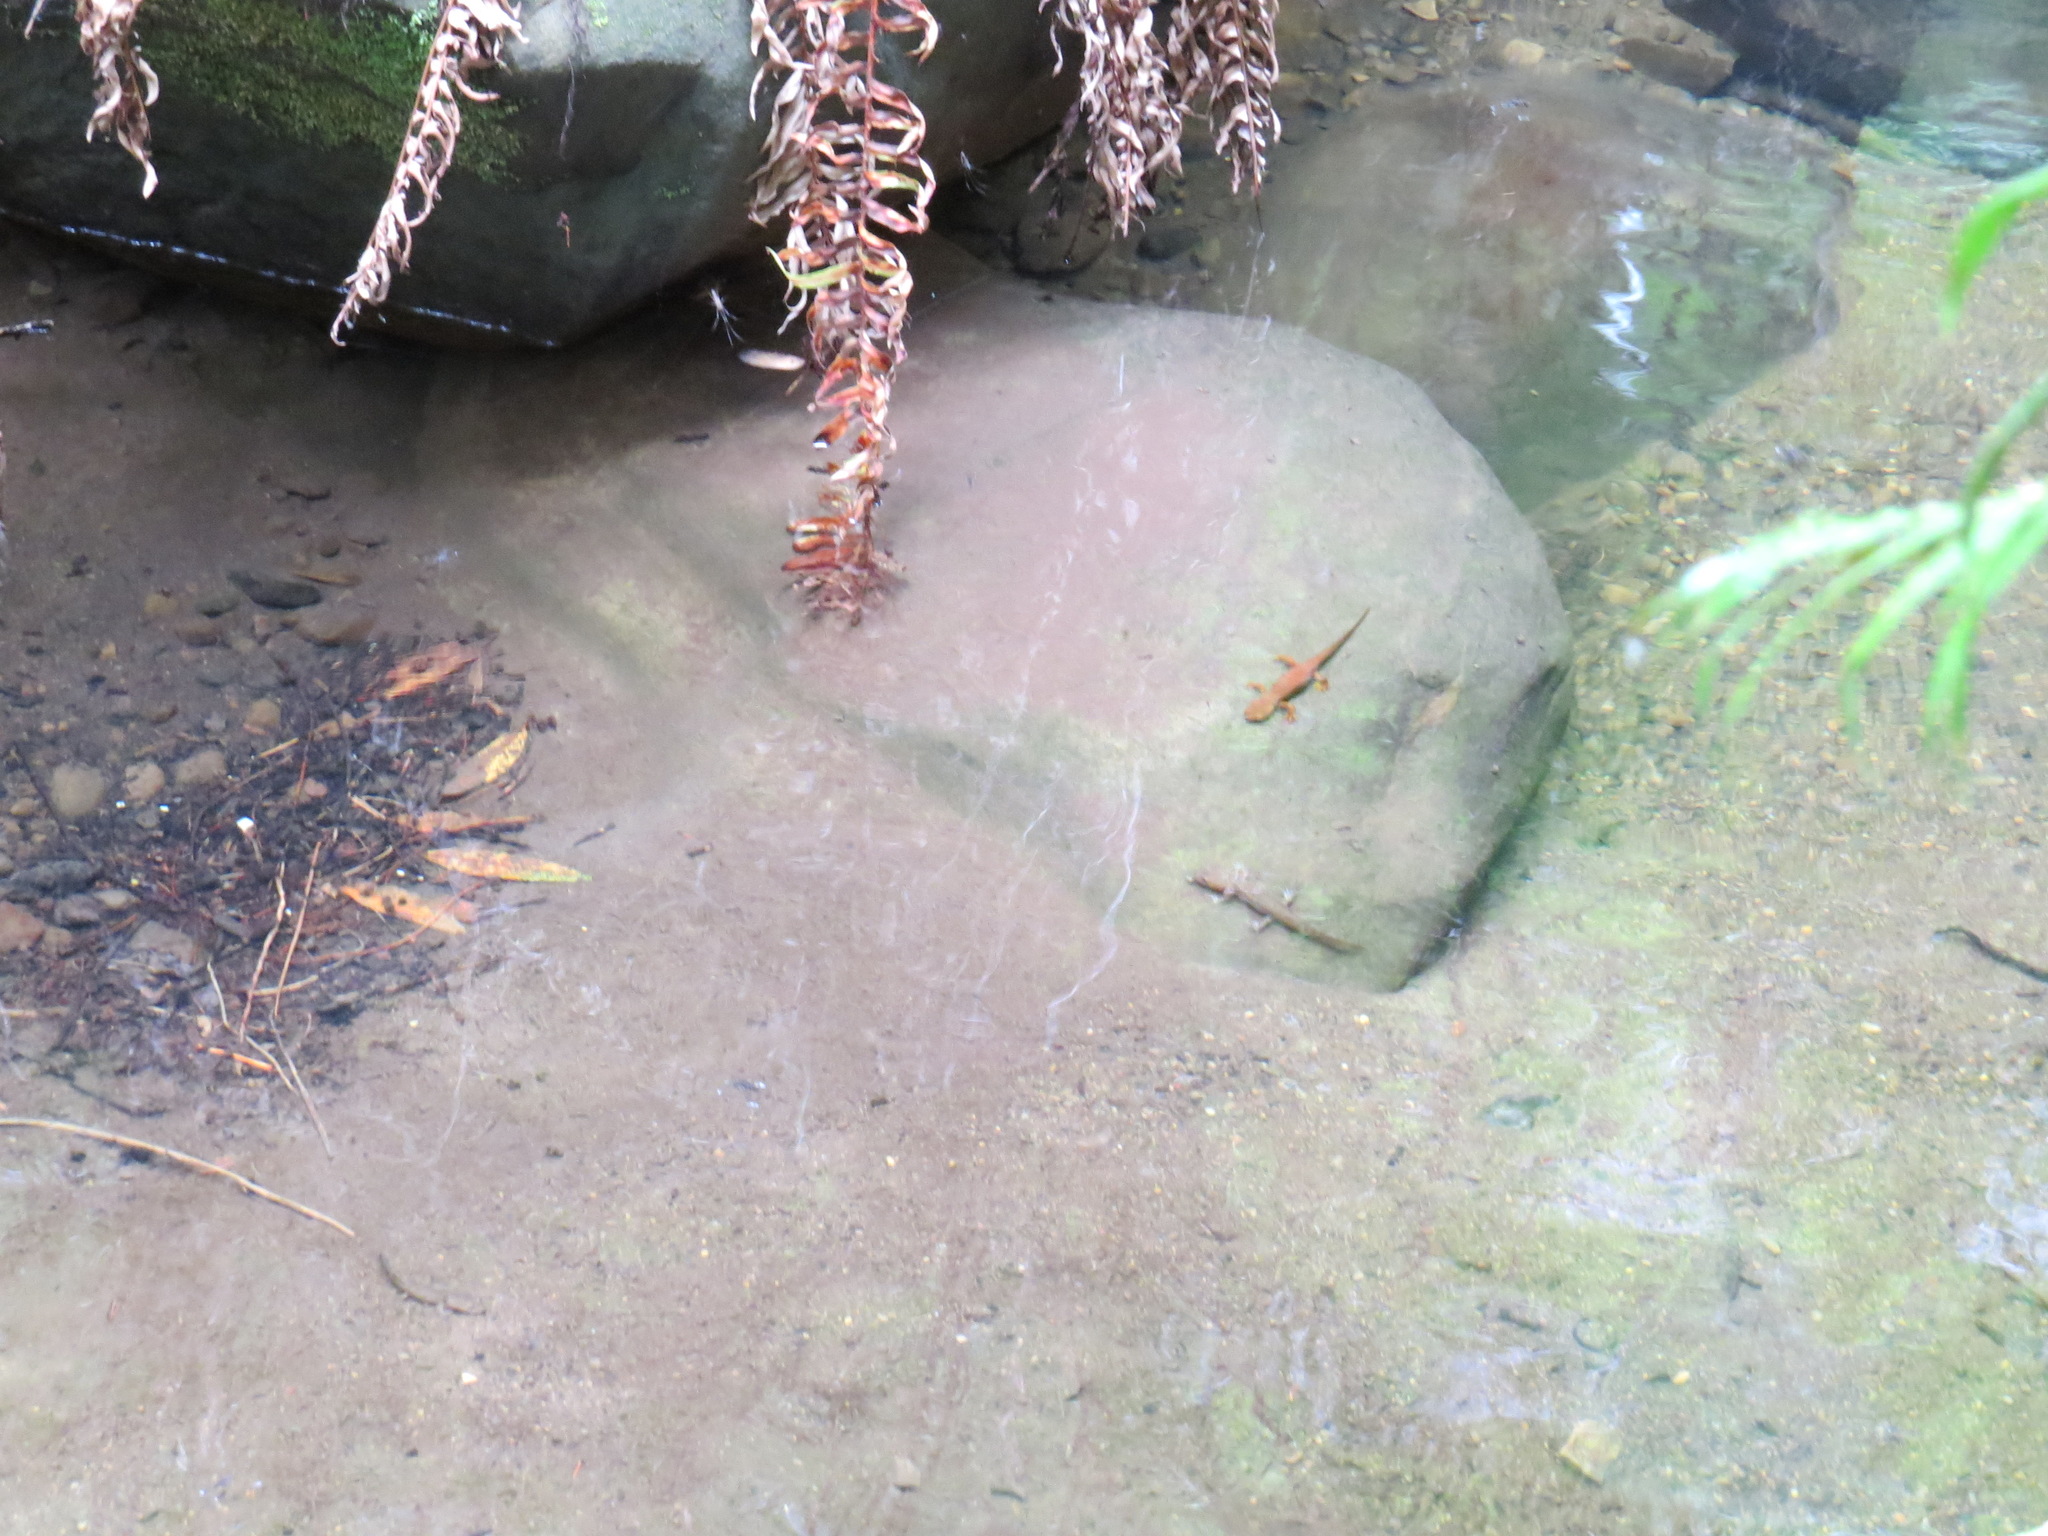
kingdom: Animalia
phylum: Chordata
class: Amphibia
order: Caudata
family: Ambystomatidae
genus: Dicamptodon
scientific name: Dicamptodon ensatus
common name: California giant salamander
